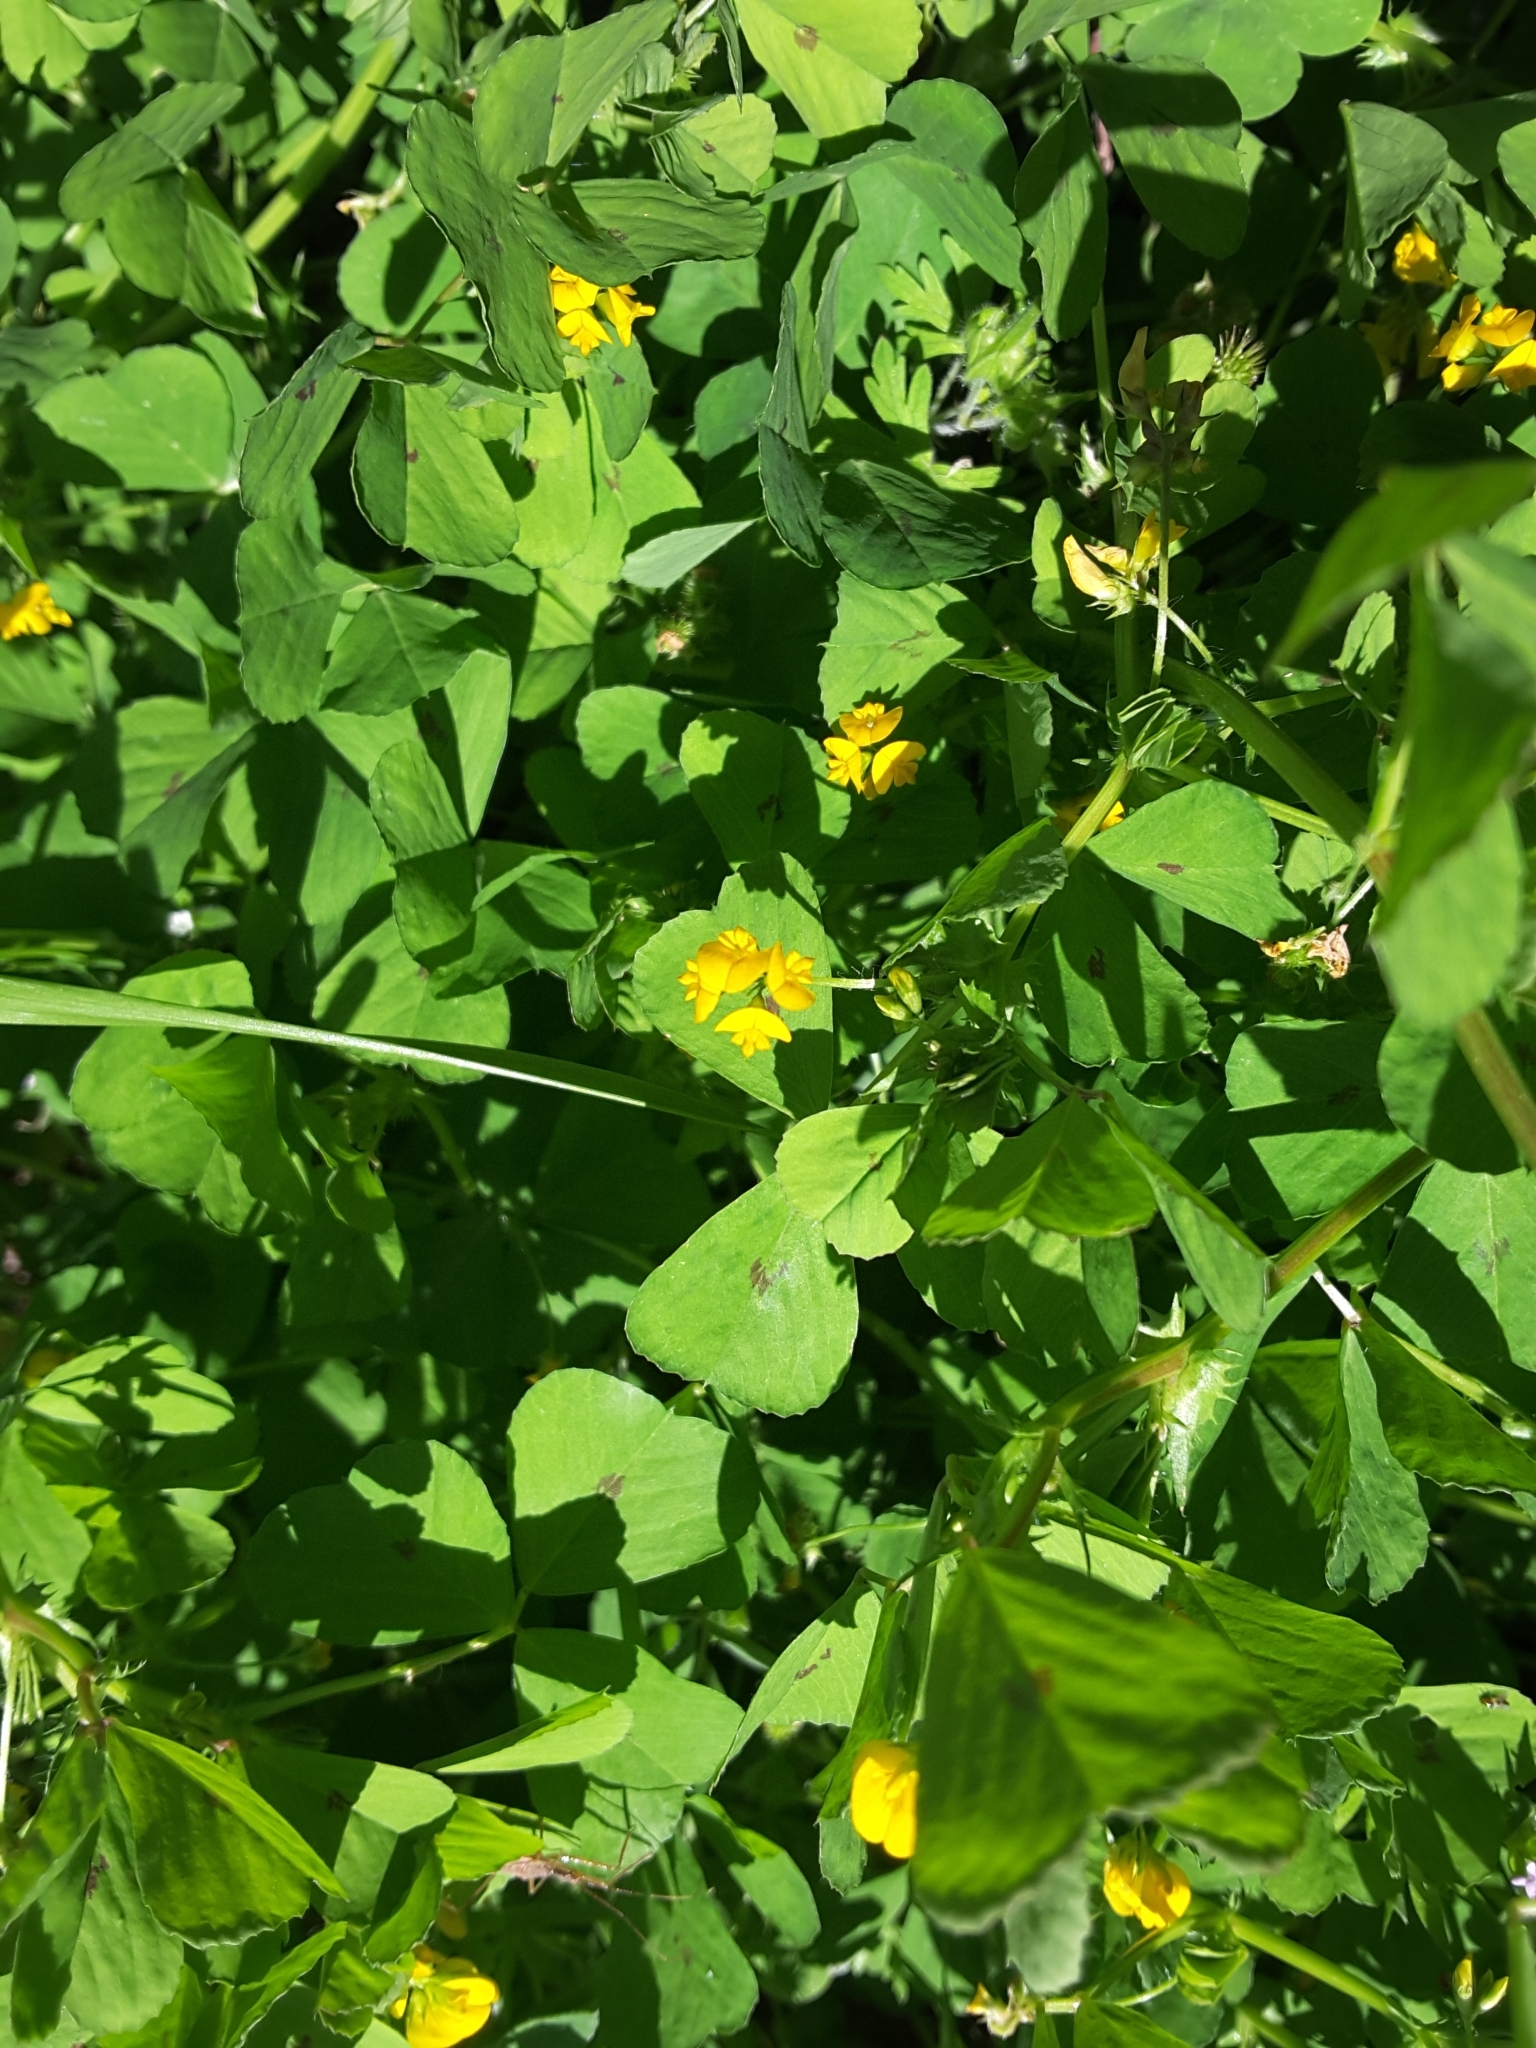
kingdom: Plantae
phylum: Tracheophyta
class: Magnoliopsida
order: Fabales
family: Fabaceae
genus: Medicago
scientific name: Medicago arabica
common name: Spotted medick
